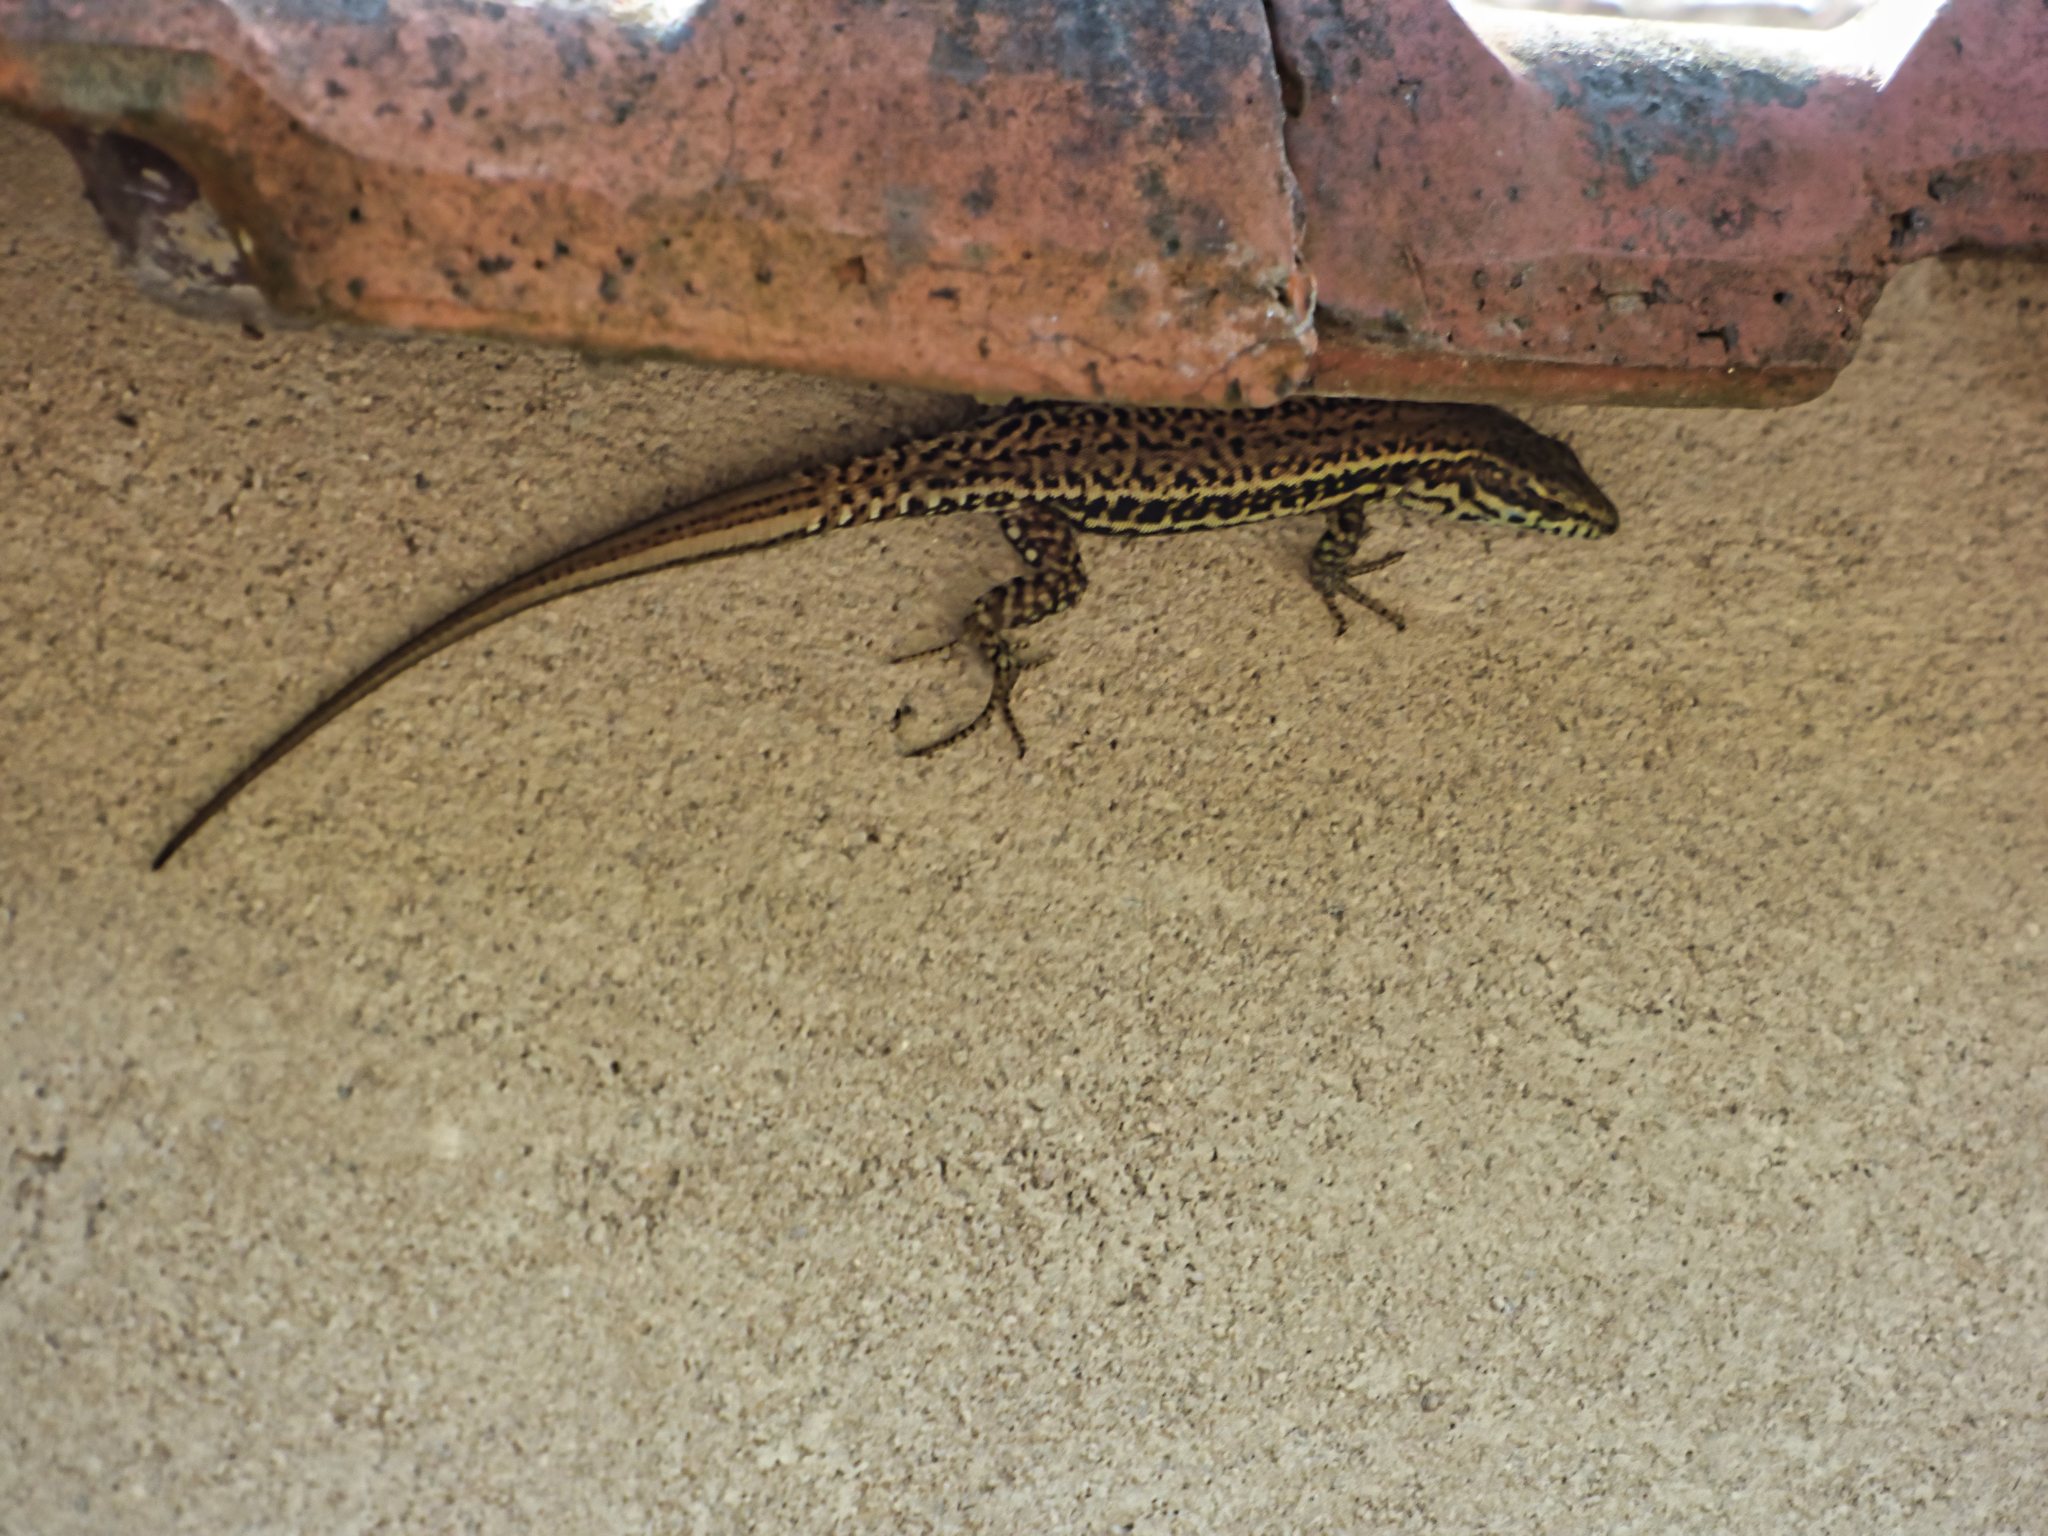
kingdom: Animalia
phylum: Chordata
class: Squamata
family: Lacertidae
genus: Podarcis
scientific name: Podarcis muralis
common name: Common wall lizard
